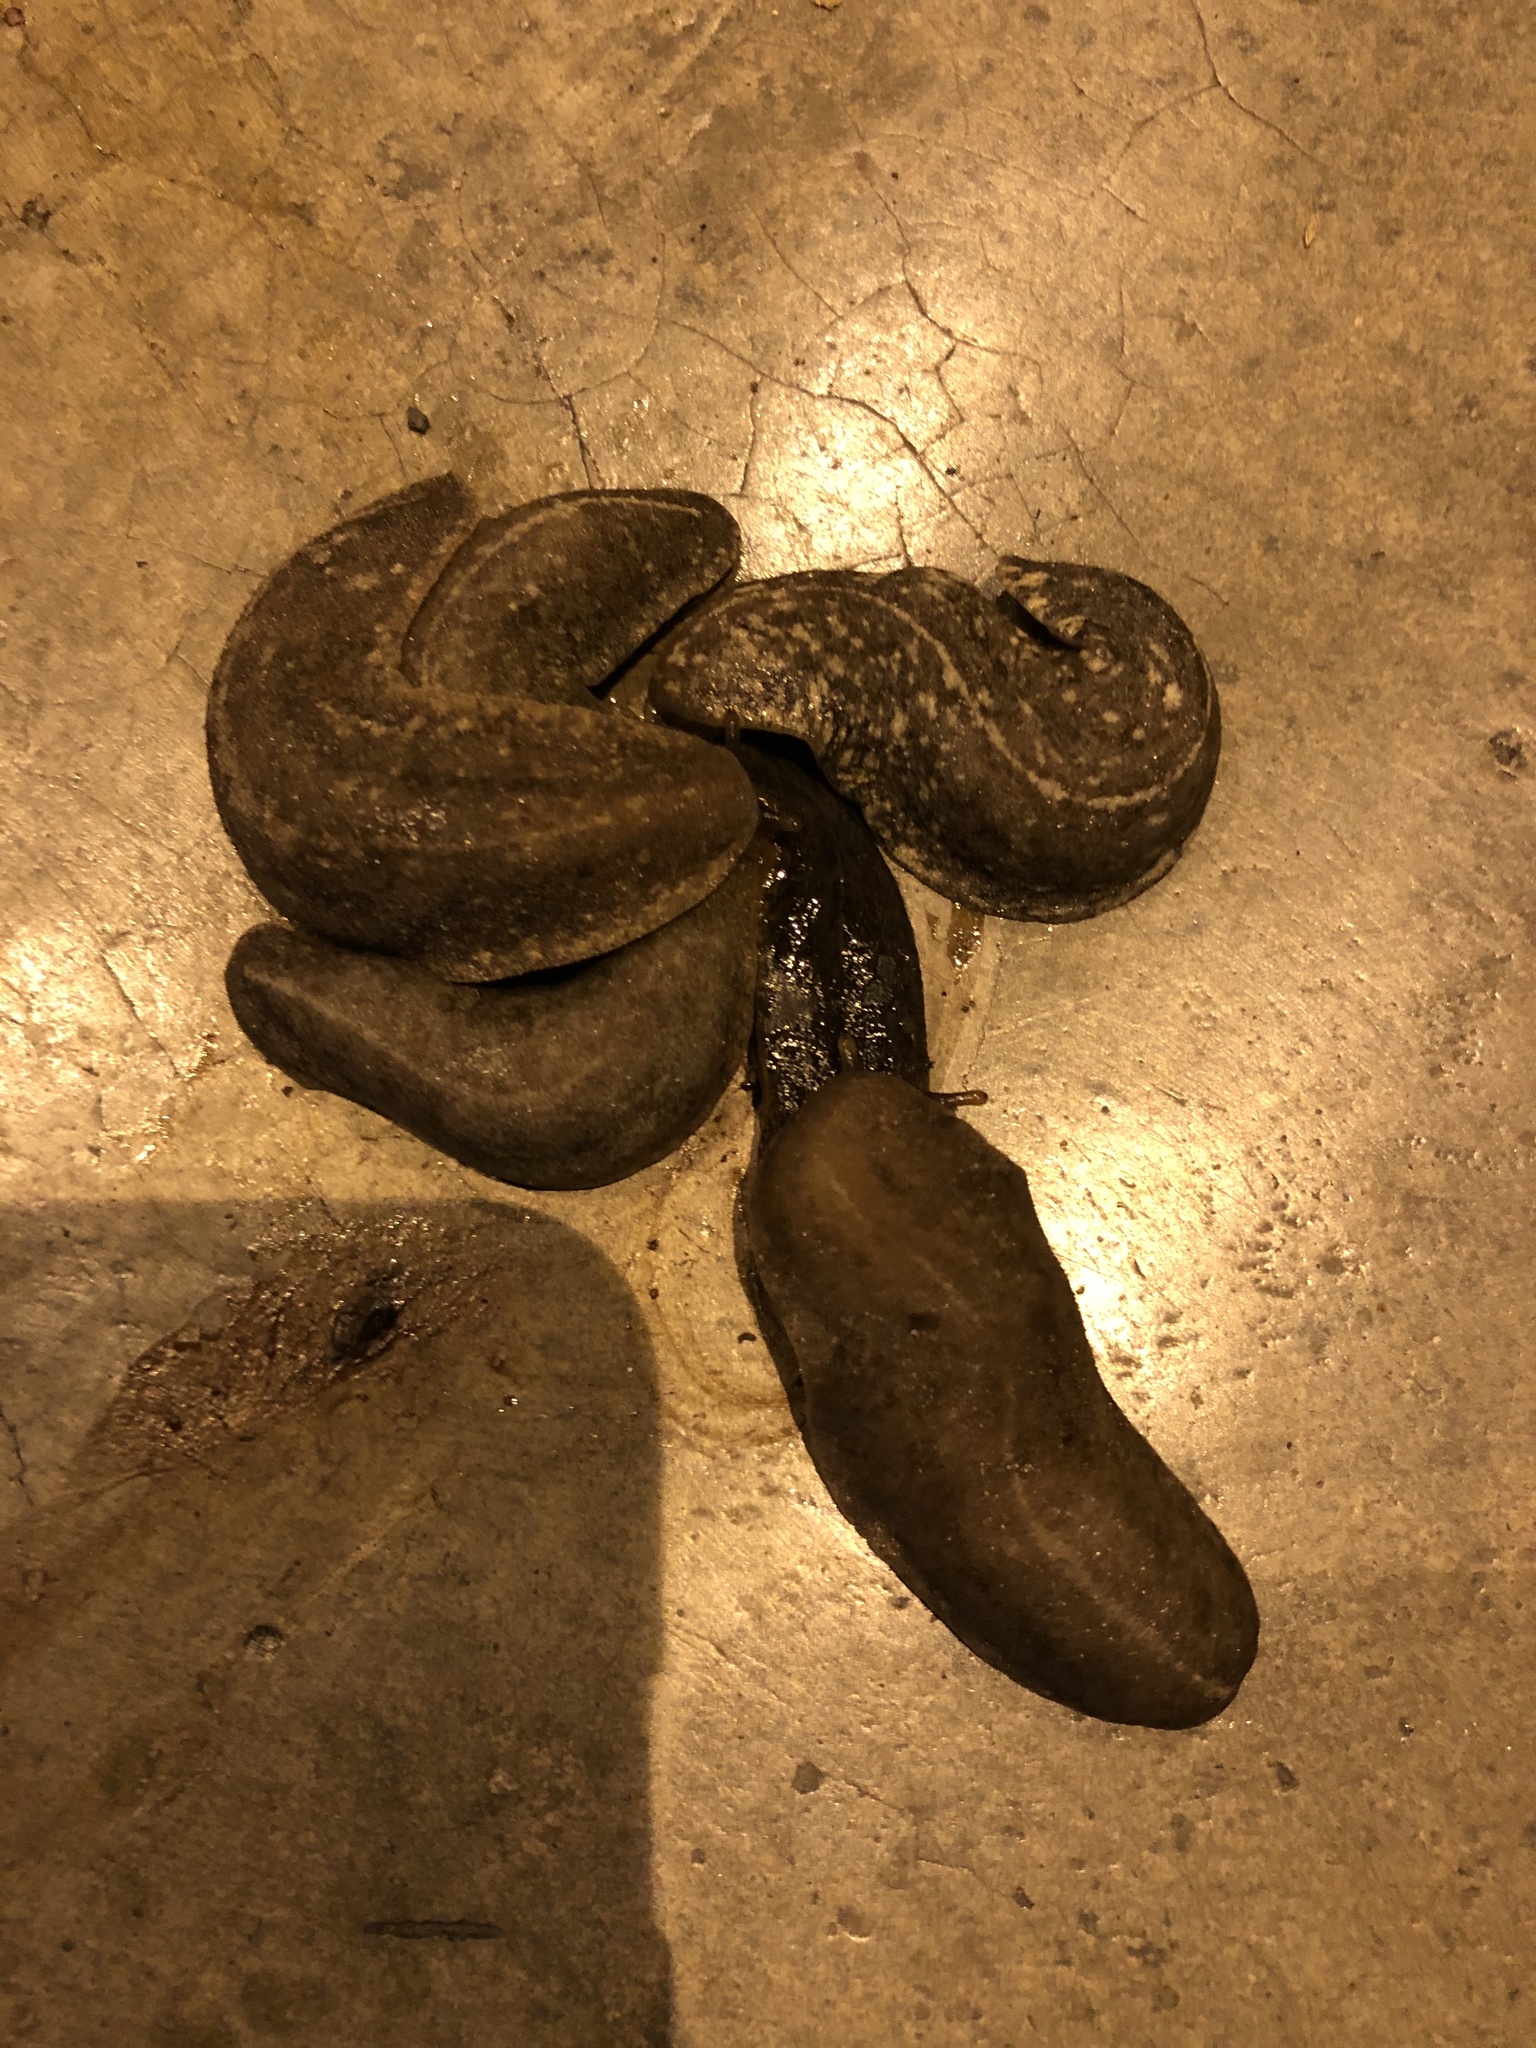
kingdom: Animalia
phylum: Mollusca
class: Gastropoda
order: Systellommatophora
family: Veronicellidae
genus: Heterovaginina
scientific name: Heterovaginina limayana
